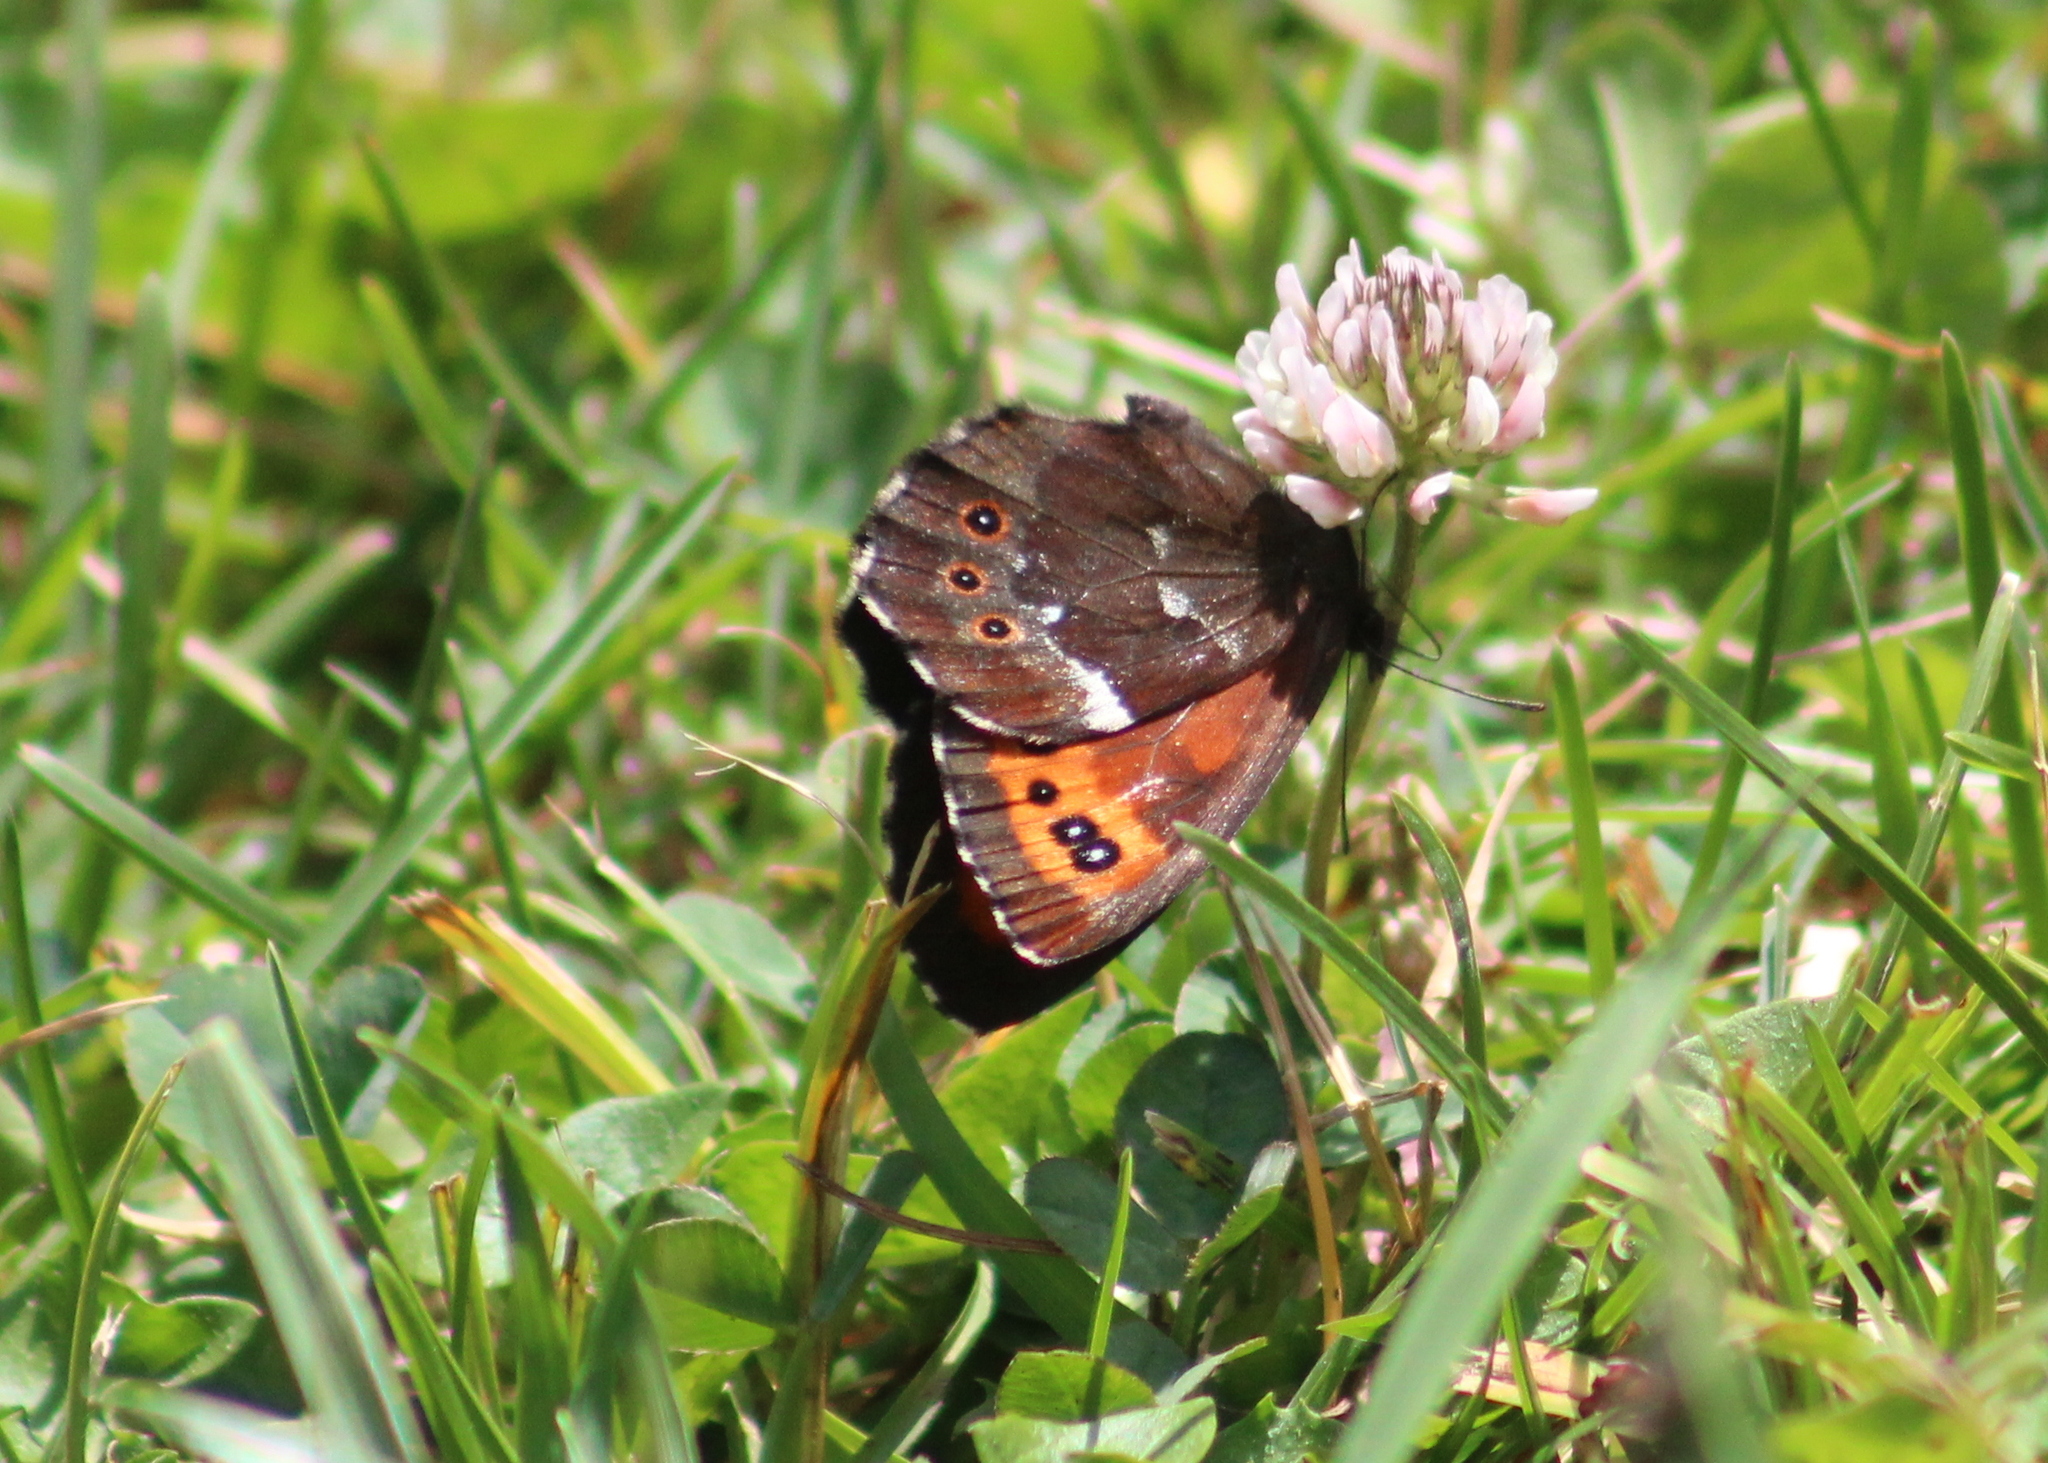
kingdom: Animalia
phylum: Arthropoda
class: Insecta
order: Lepidoptera
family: Nymphalidae
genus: Erebia
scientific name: Erebia ligea
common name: Arran brown
